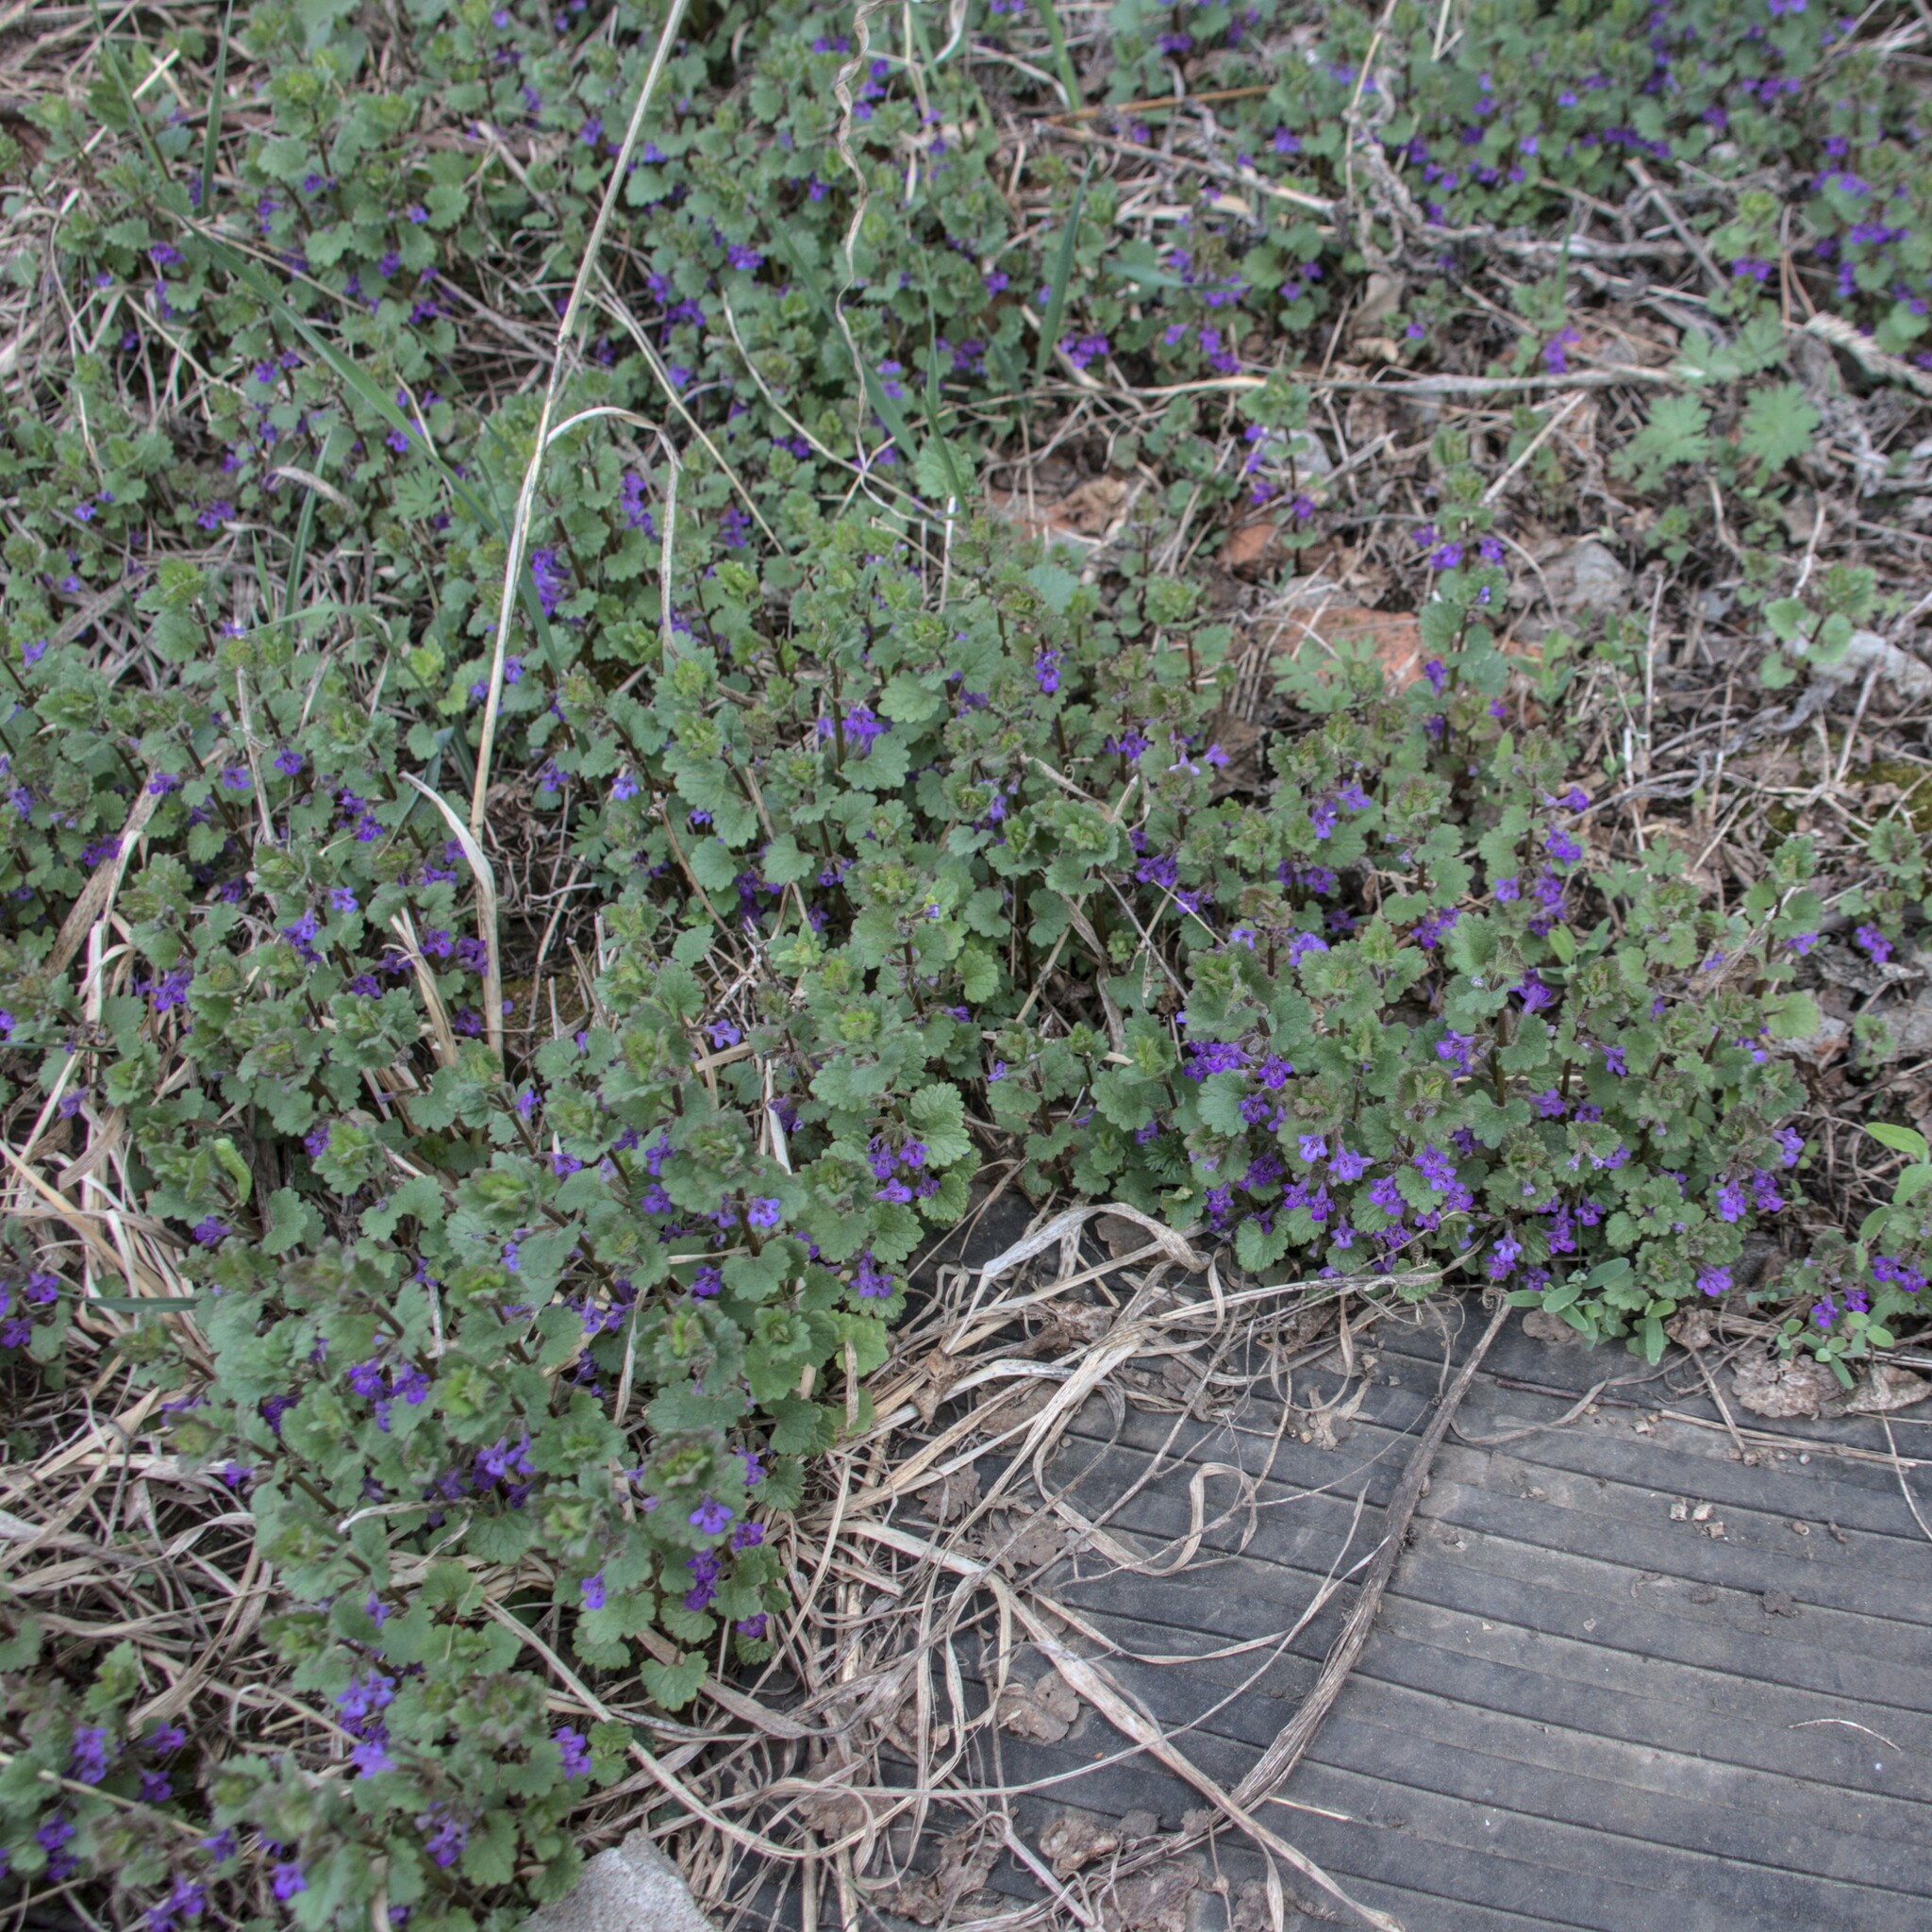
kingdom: Plantae
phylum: Tracheophyta
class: Magnoliopsida
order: Lamiales
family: Lamiaceae
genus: Glechoma
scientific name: Glechoma hederacea
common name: Ground ivy
